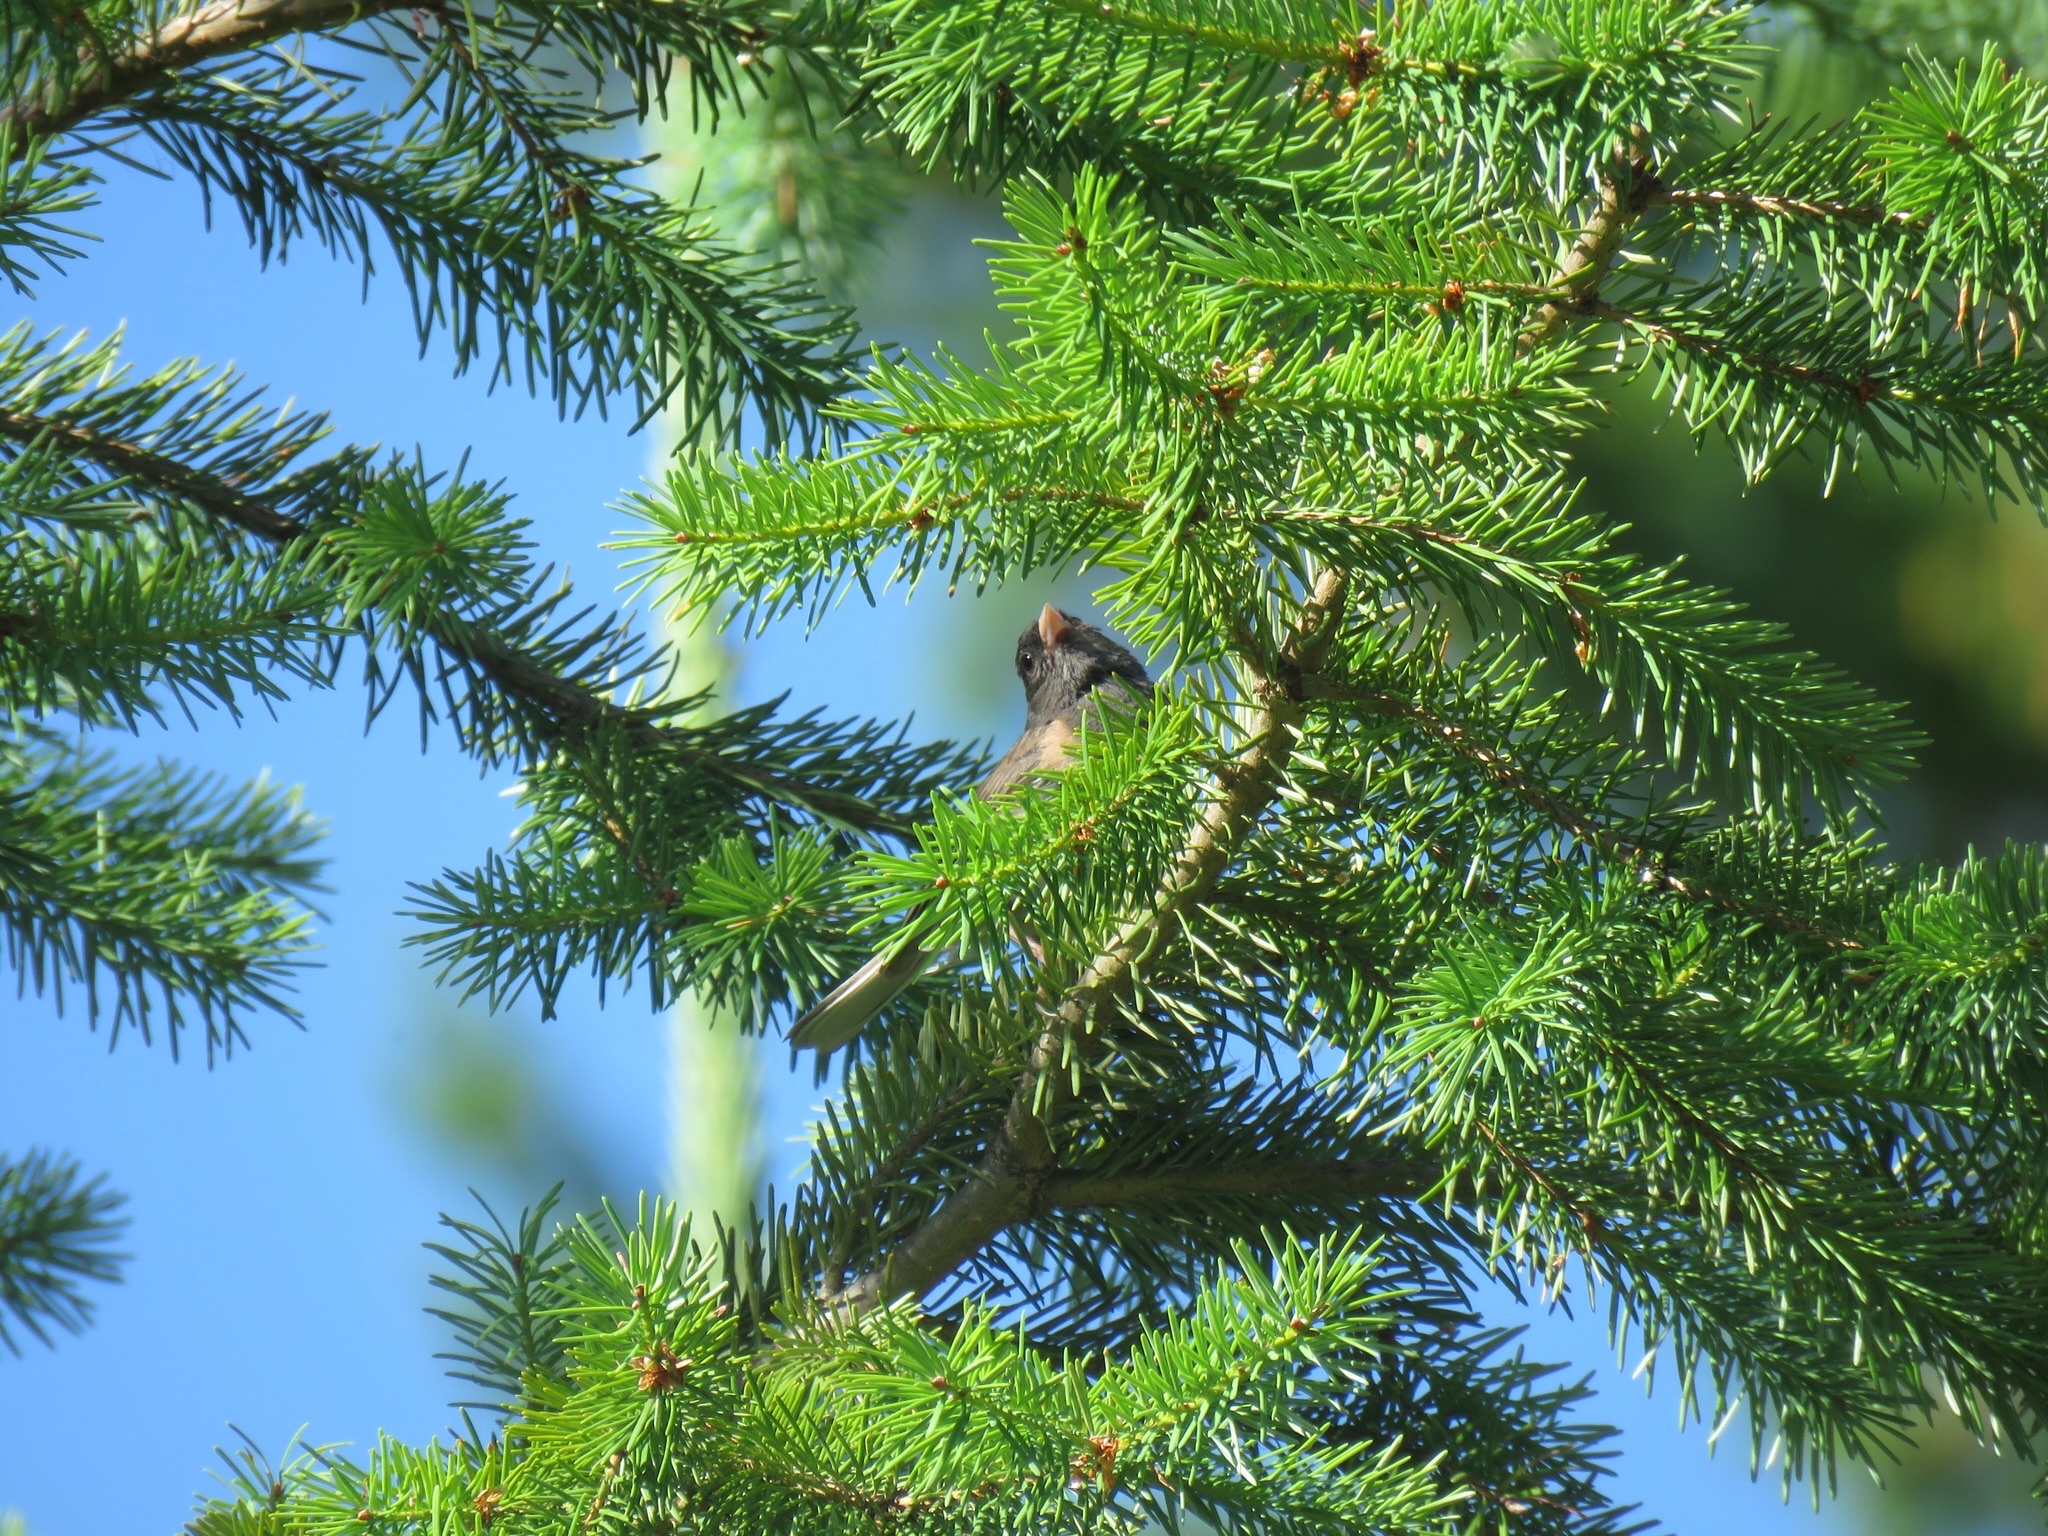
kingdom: Animalia
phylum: Chordata
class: Aves
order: Passeriformes
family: Passerellidae
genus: Junco
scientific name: Junco hyemalis
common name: Dark-eyed junco
